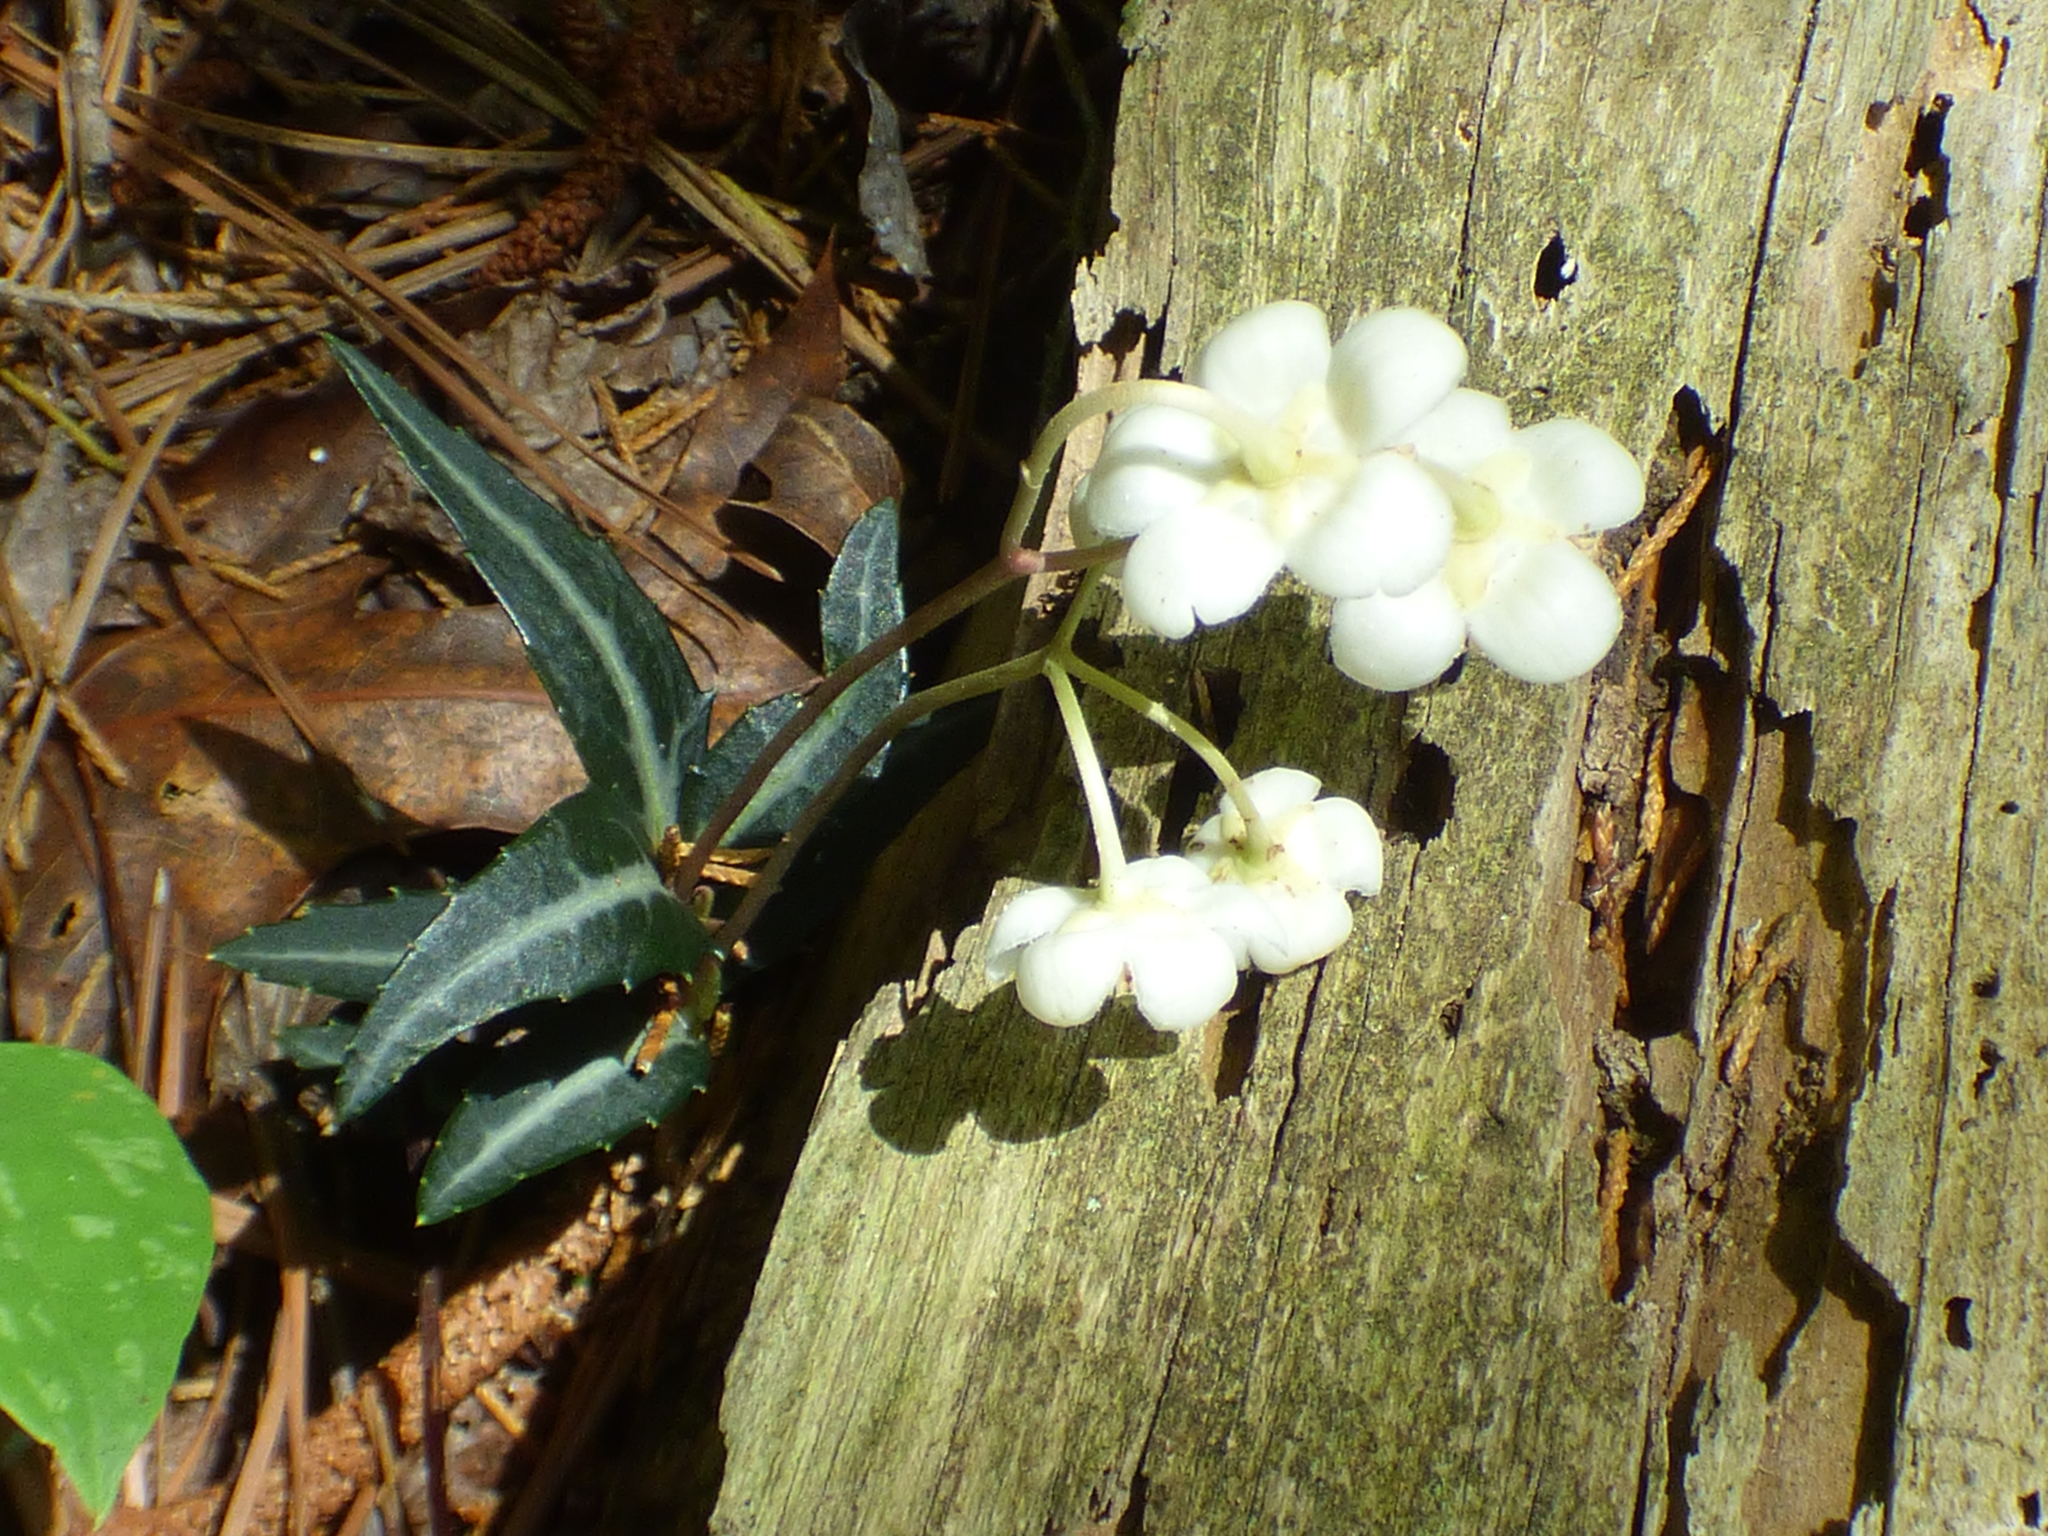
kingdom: Plantae
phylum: Tracheophyta
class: Magnoliopsida
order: Ericales
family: Ericaceae
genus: Chimaphila
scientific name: Chimaphila maculata
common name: Spotted pipsissewa
